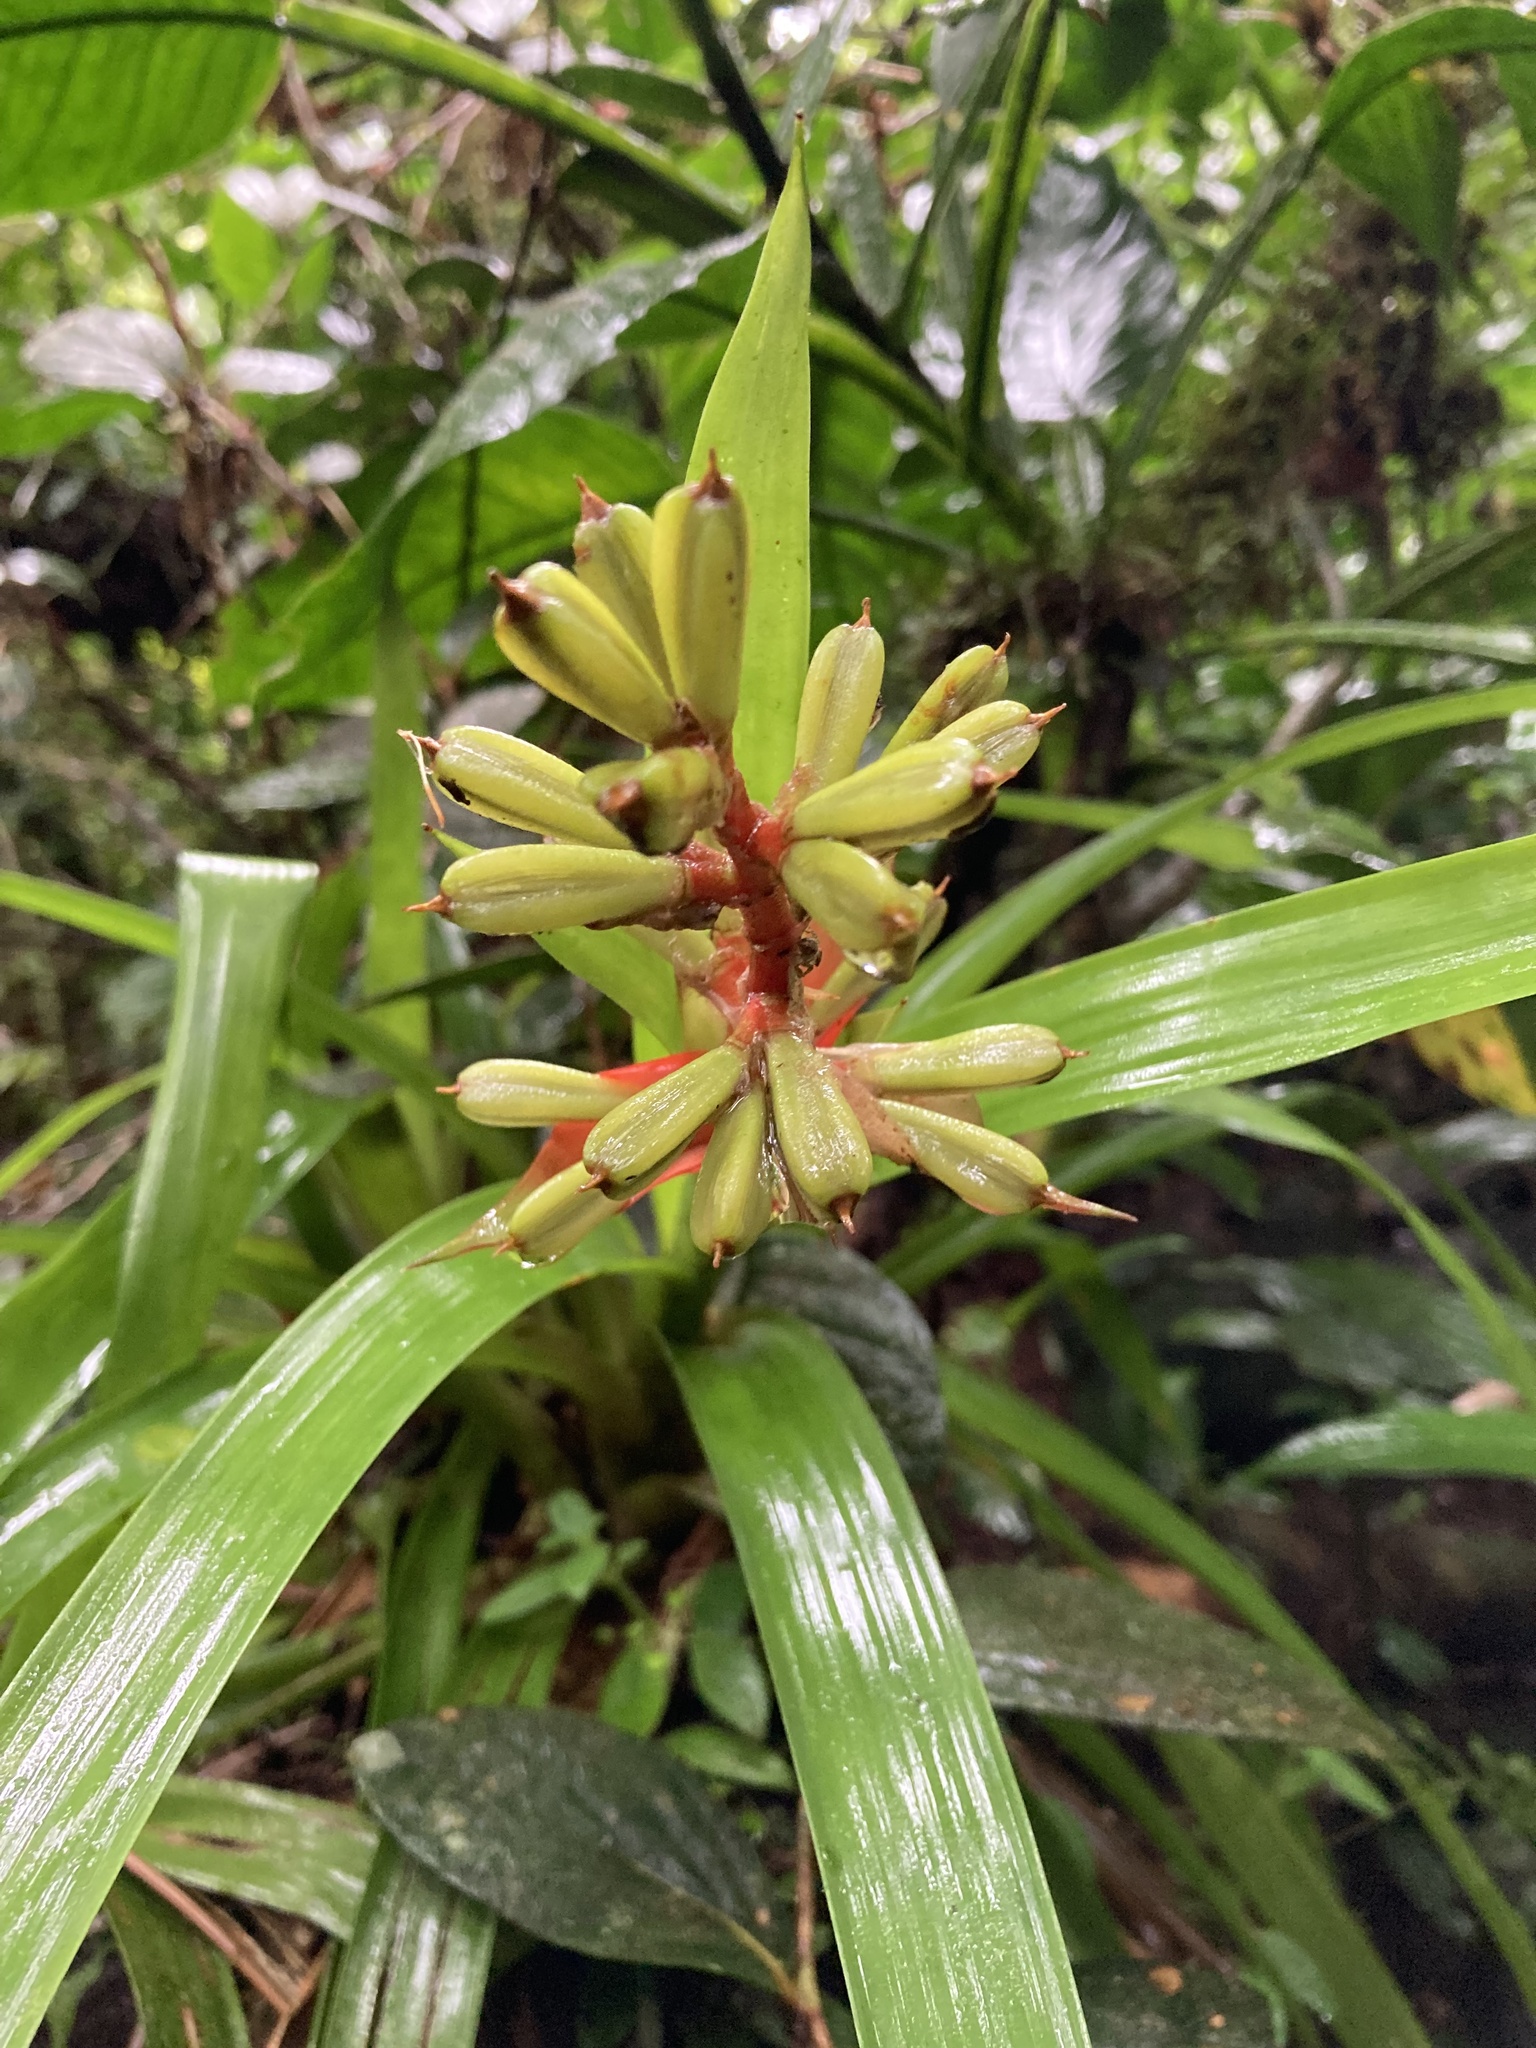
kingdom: Plantae
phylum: Tracheophyta
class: Liliopsida
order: Poales
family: Bromeliaceae
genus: Guzmania
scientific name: Guzmania donnellsmithii
